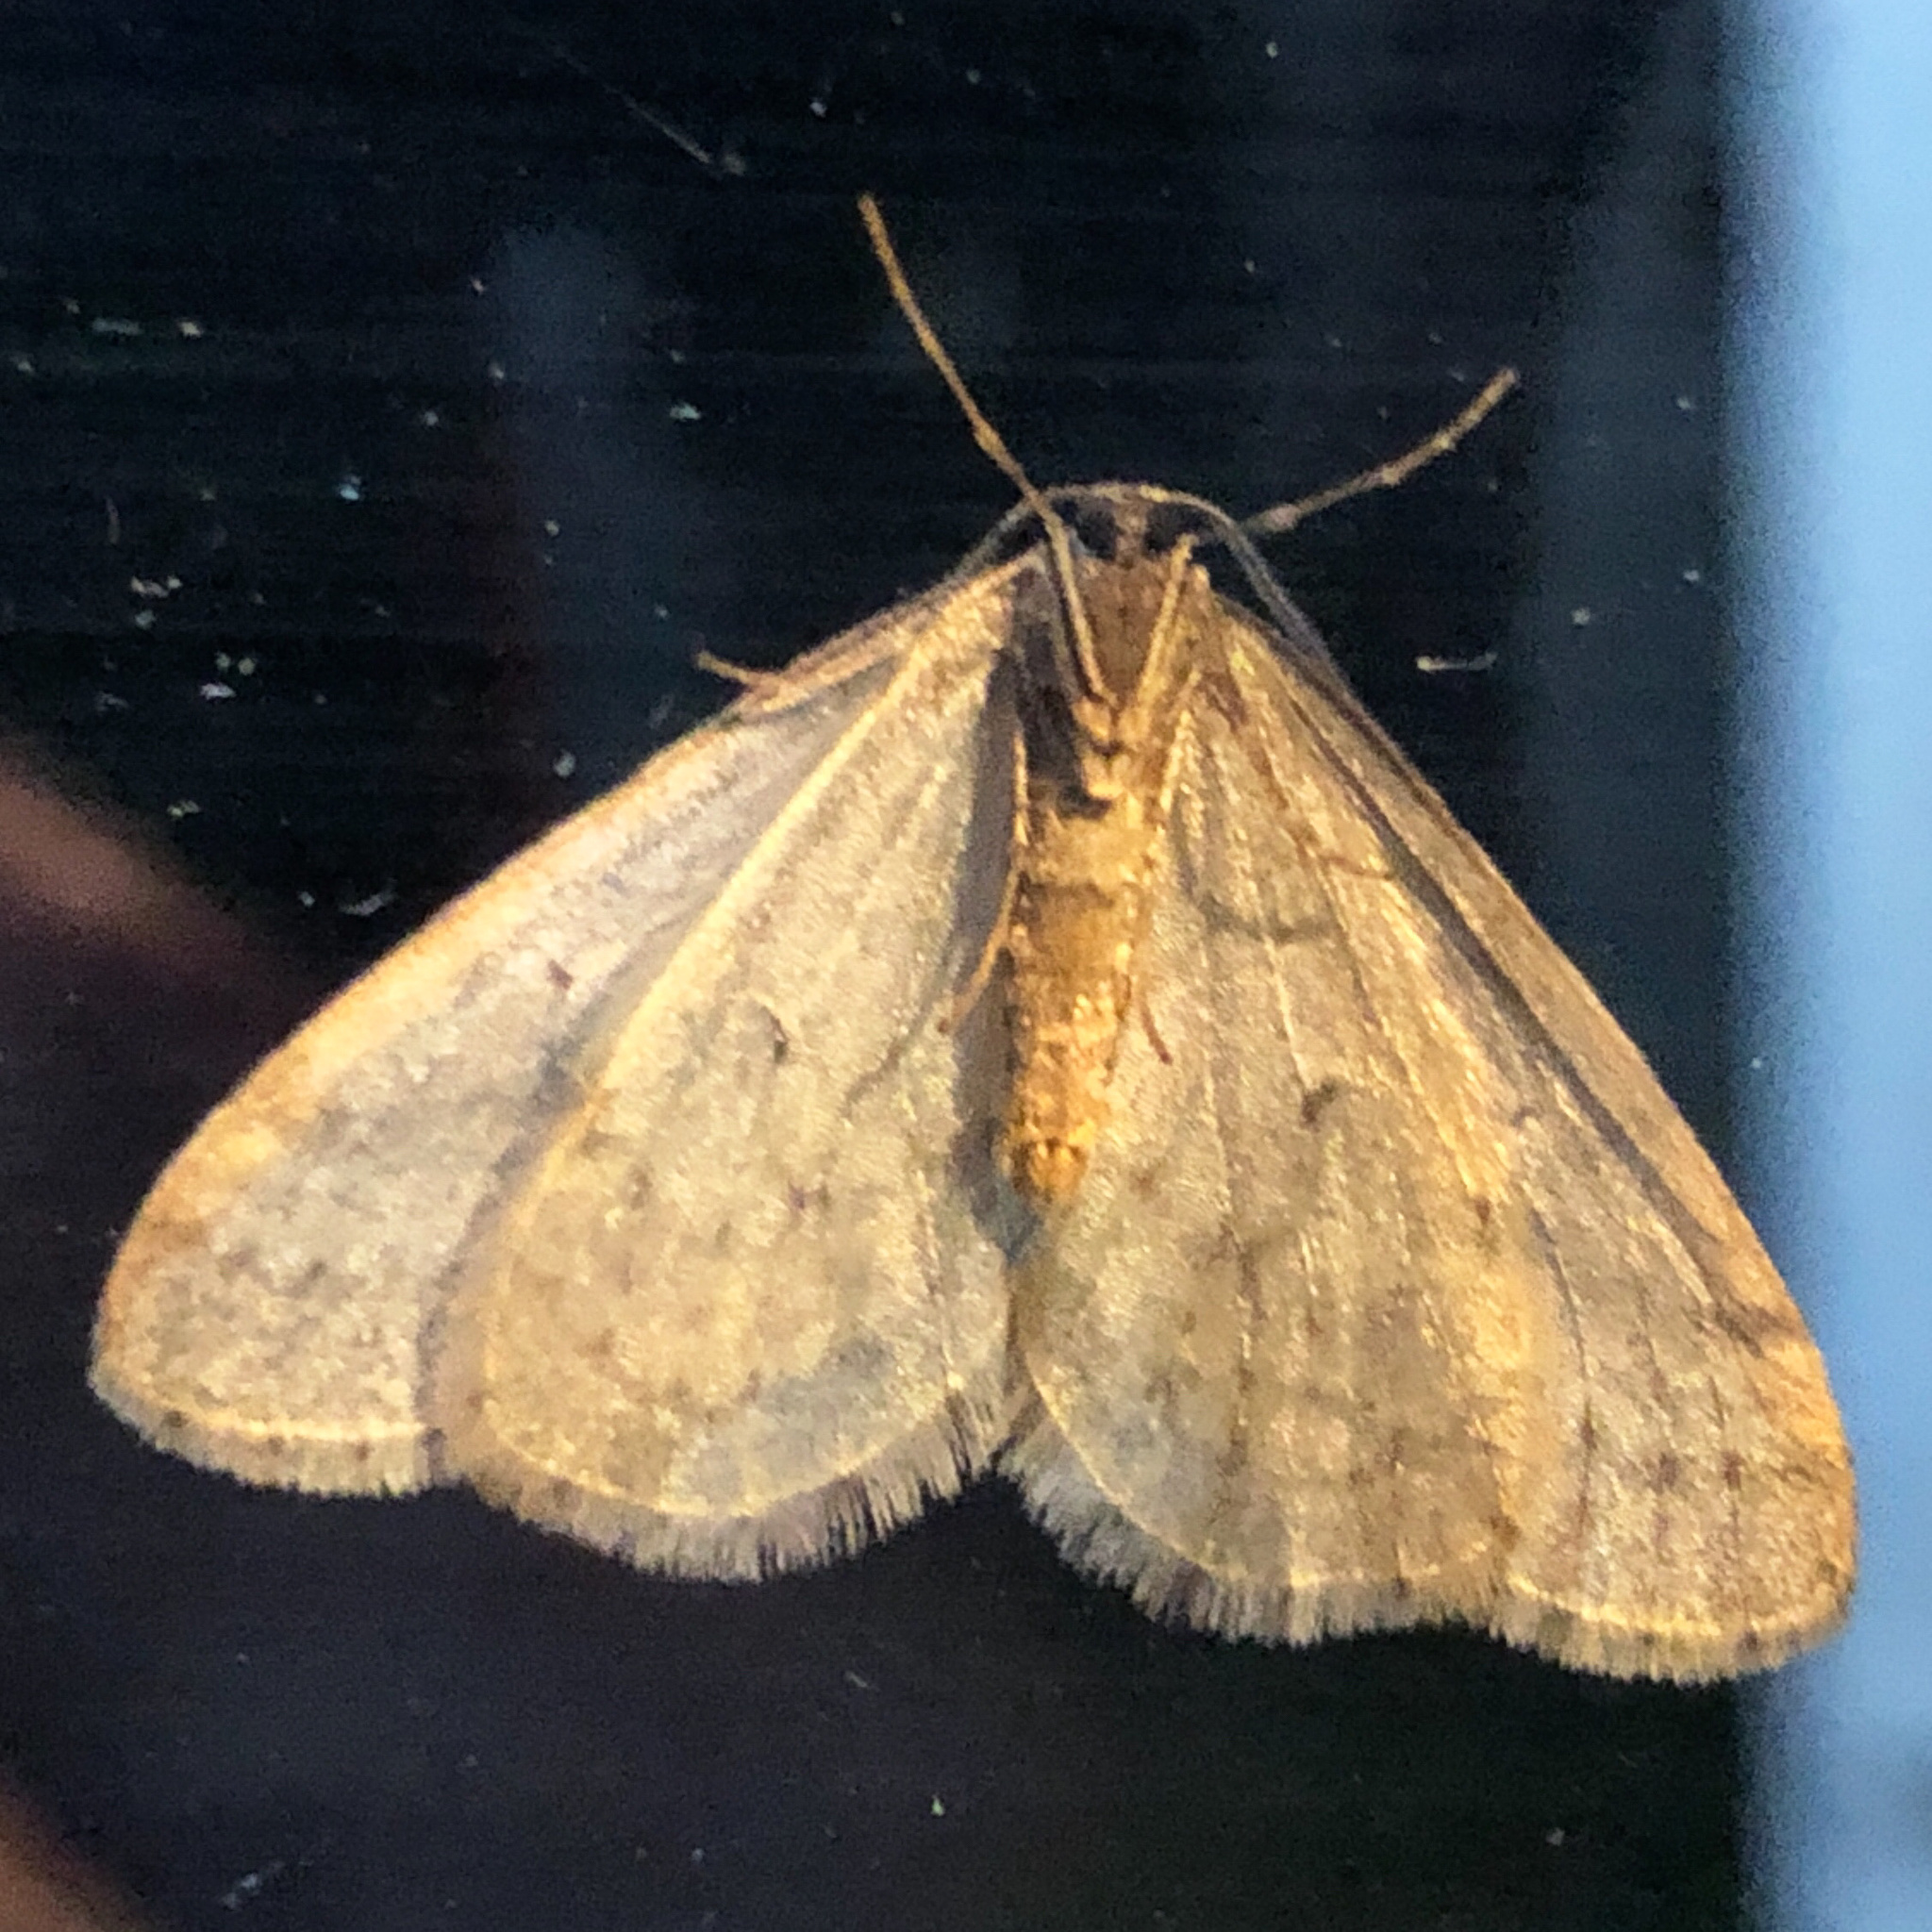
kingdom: Animalia
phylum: Arthropoda
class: Insecta
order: Lepidoptera
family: Geometridae
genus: Operophtera
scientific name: Operophtera bruceata
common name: Bruce spanworm
